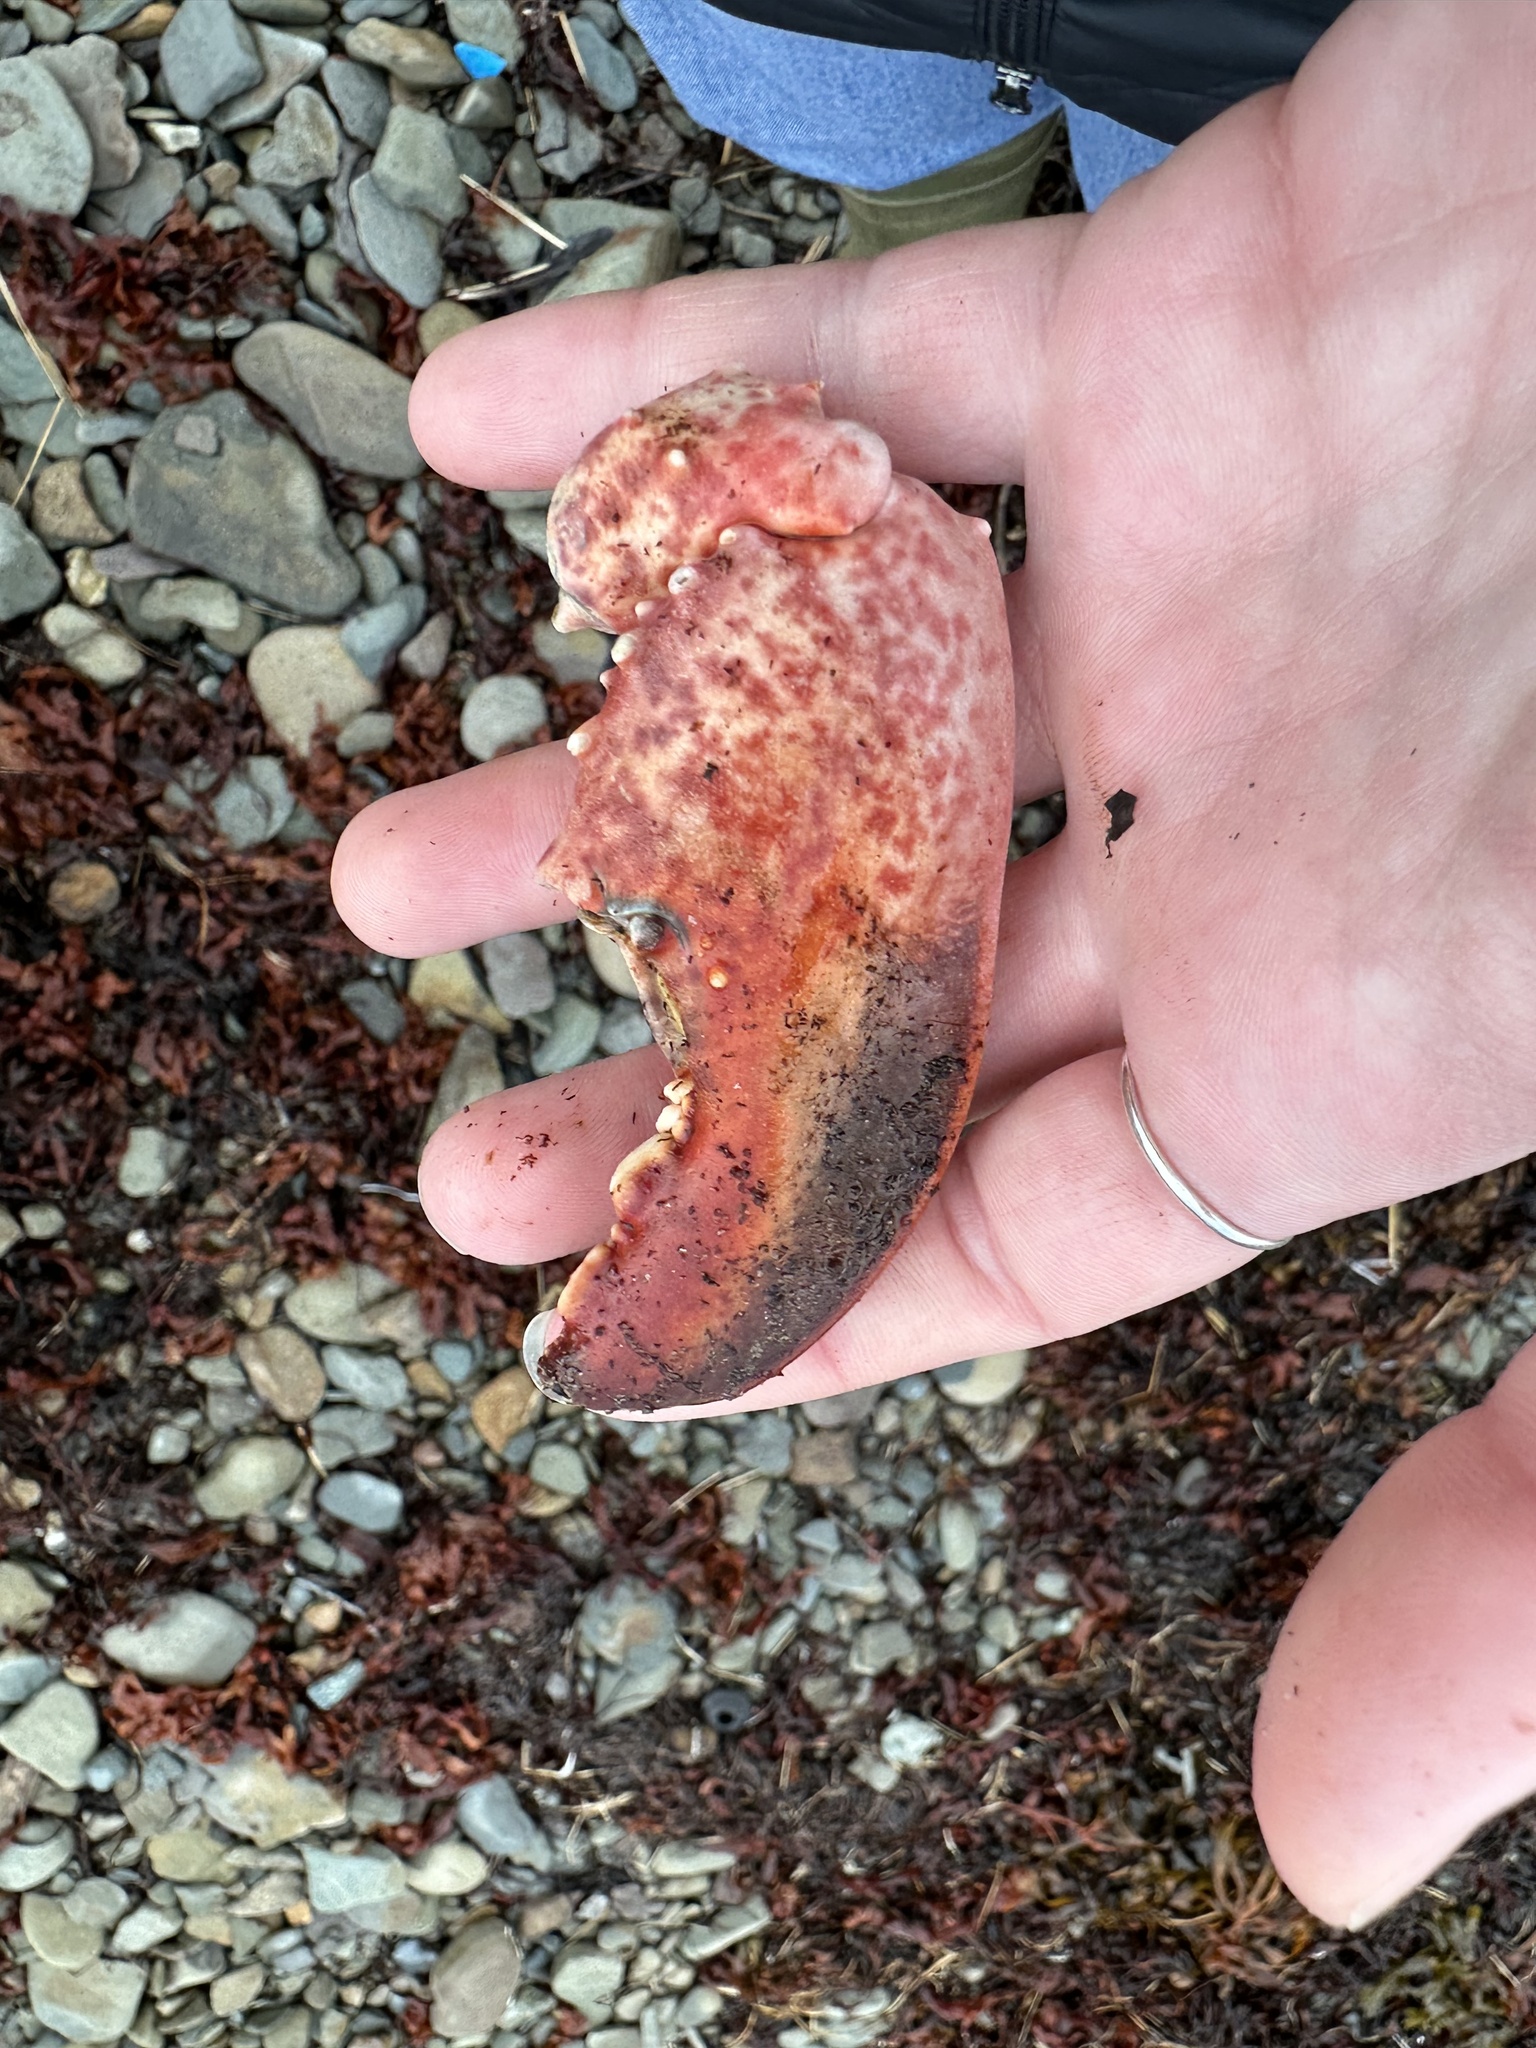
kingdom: Animalia
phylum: Arthropoda
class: Malacostraca
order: Decapoda
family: Nephropidae
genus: Homarus
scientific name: Homarus americanus
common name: American lobster
